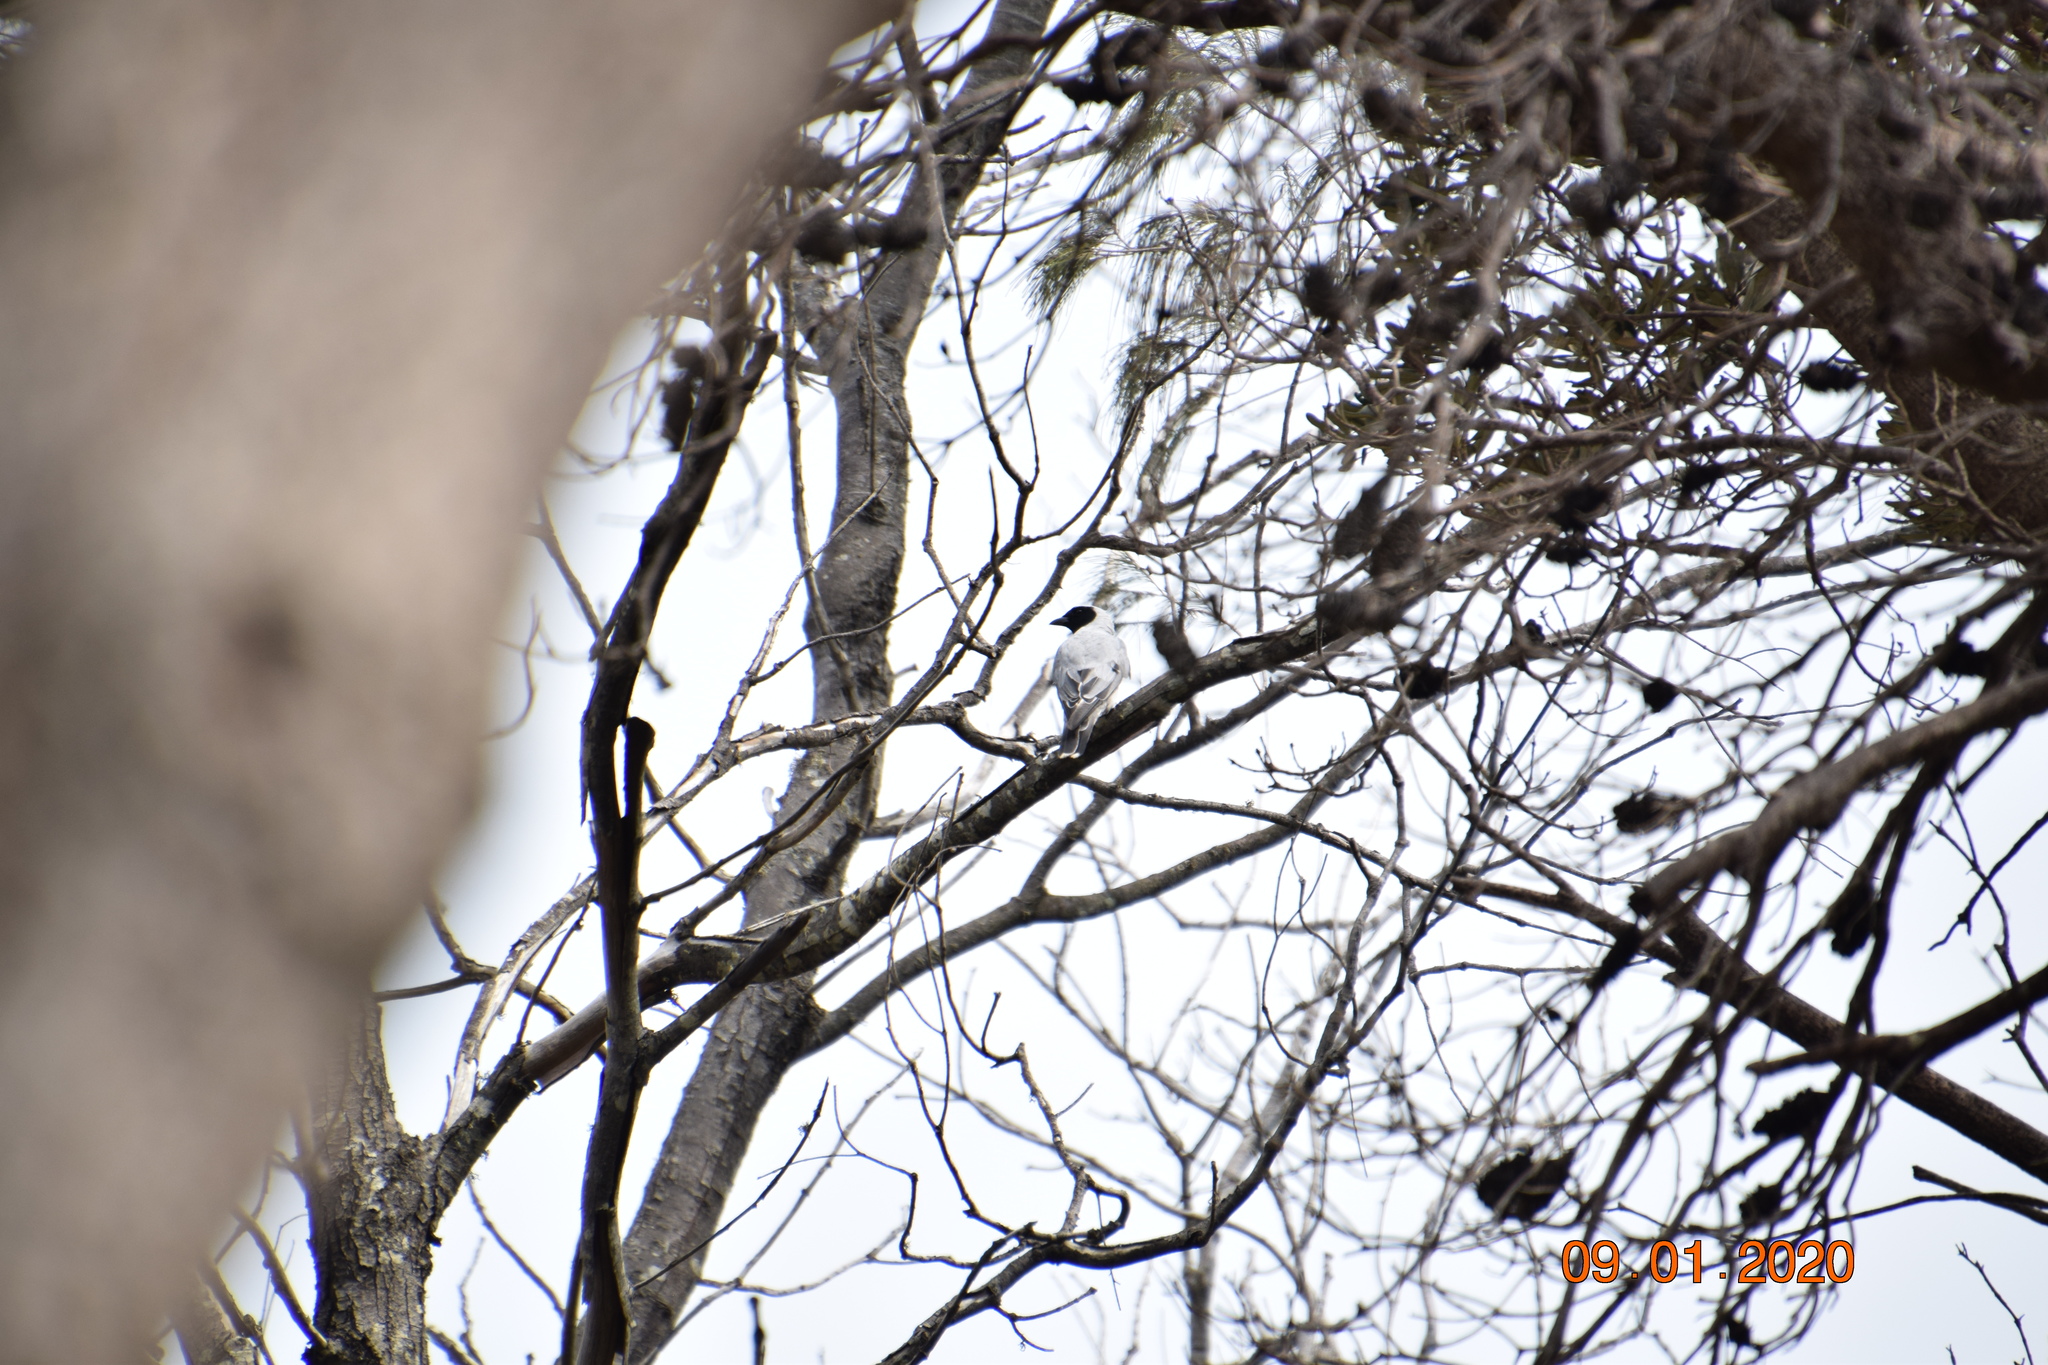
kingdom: Animalia
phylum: Chordata
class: Aves
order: Passeriformes
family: Campephagidae
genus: Coracina
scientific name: Coracina novaehollandiae
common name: Black-faced cuckooshrike
